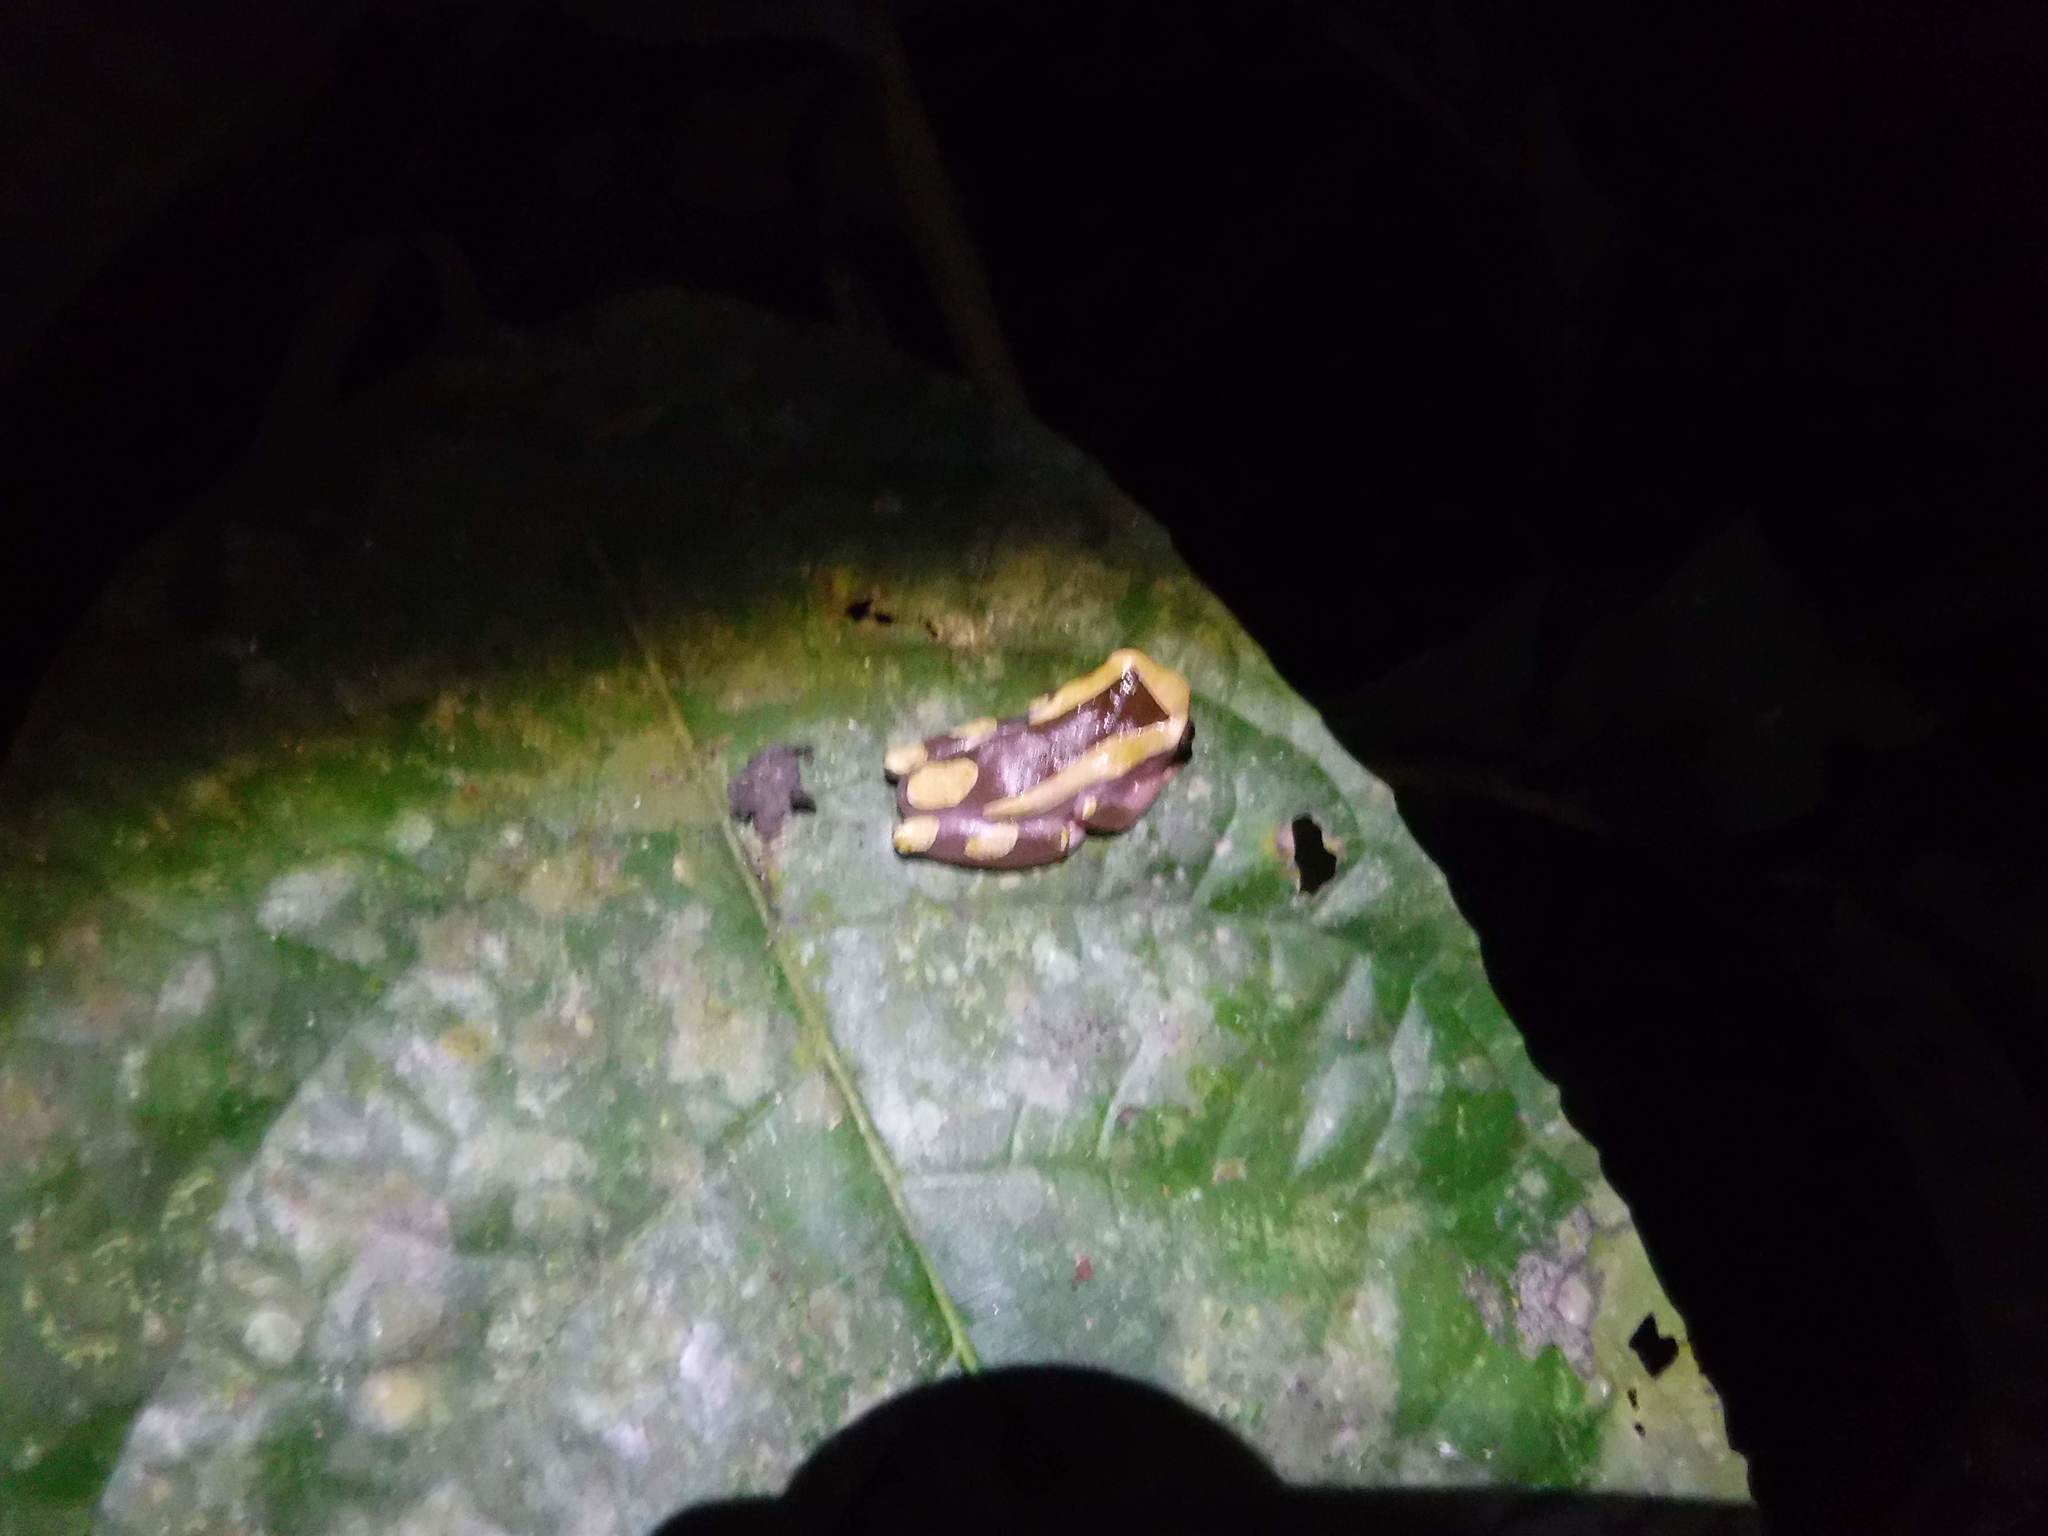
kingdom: Animalia
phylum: Chordata
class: Amphibia
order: Anura
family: Hylidae
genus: Dendropsophus
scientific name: Dendropsophus leucophyllatus
